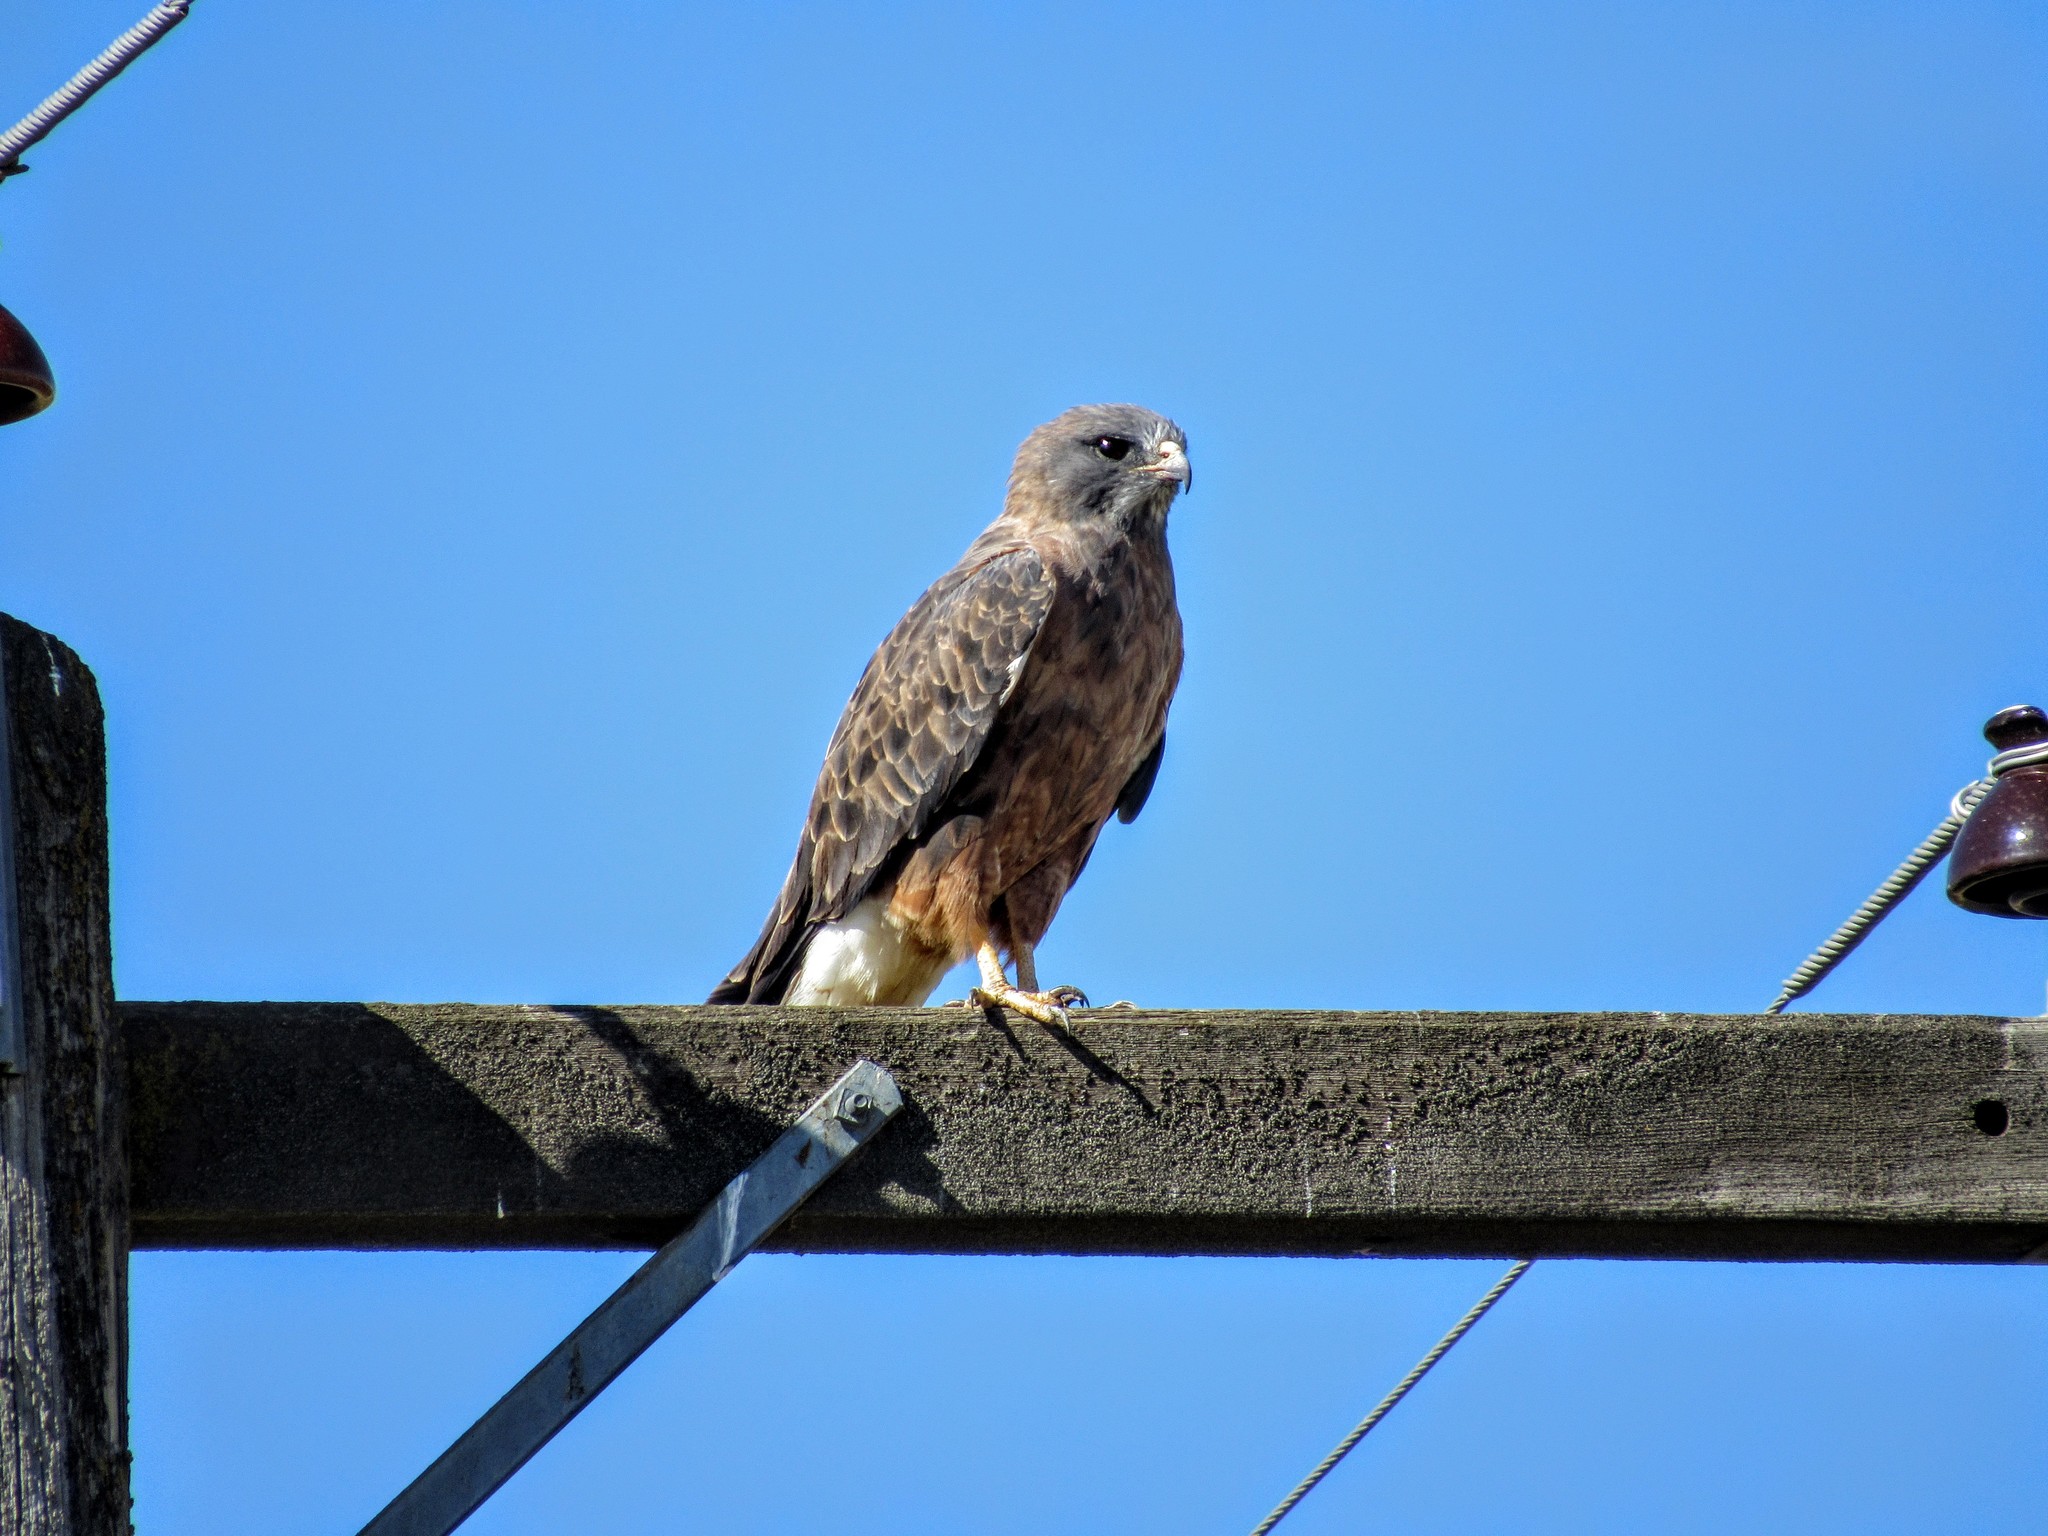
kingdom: Animalia
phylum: Chordata
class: Aves
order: Accipitriformes
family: Accipitridae
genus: Buteo
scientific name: Buteo swainsoni
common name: Swainson's hawk
